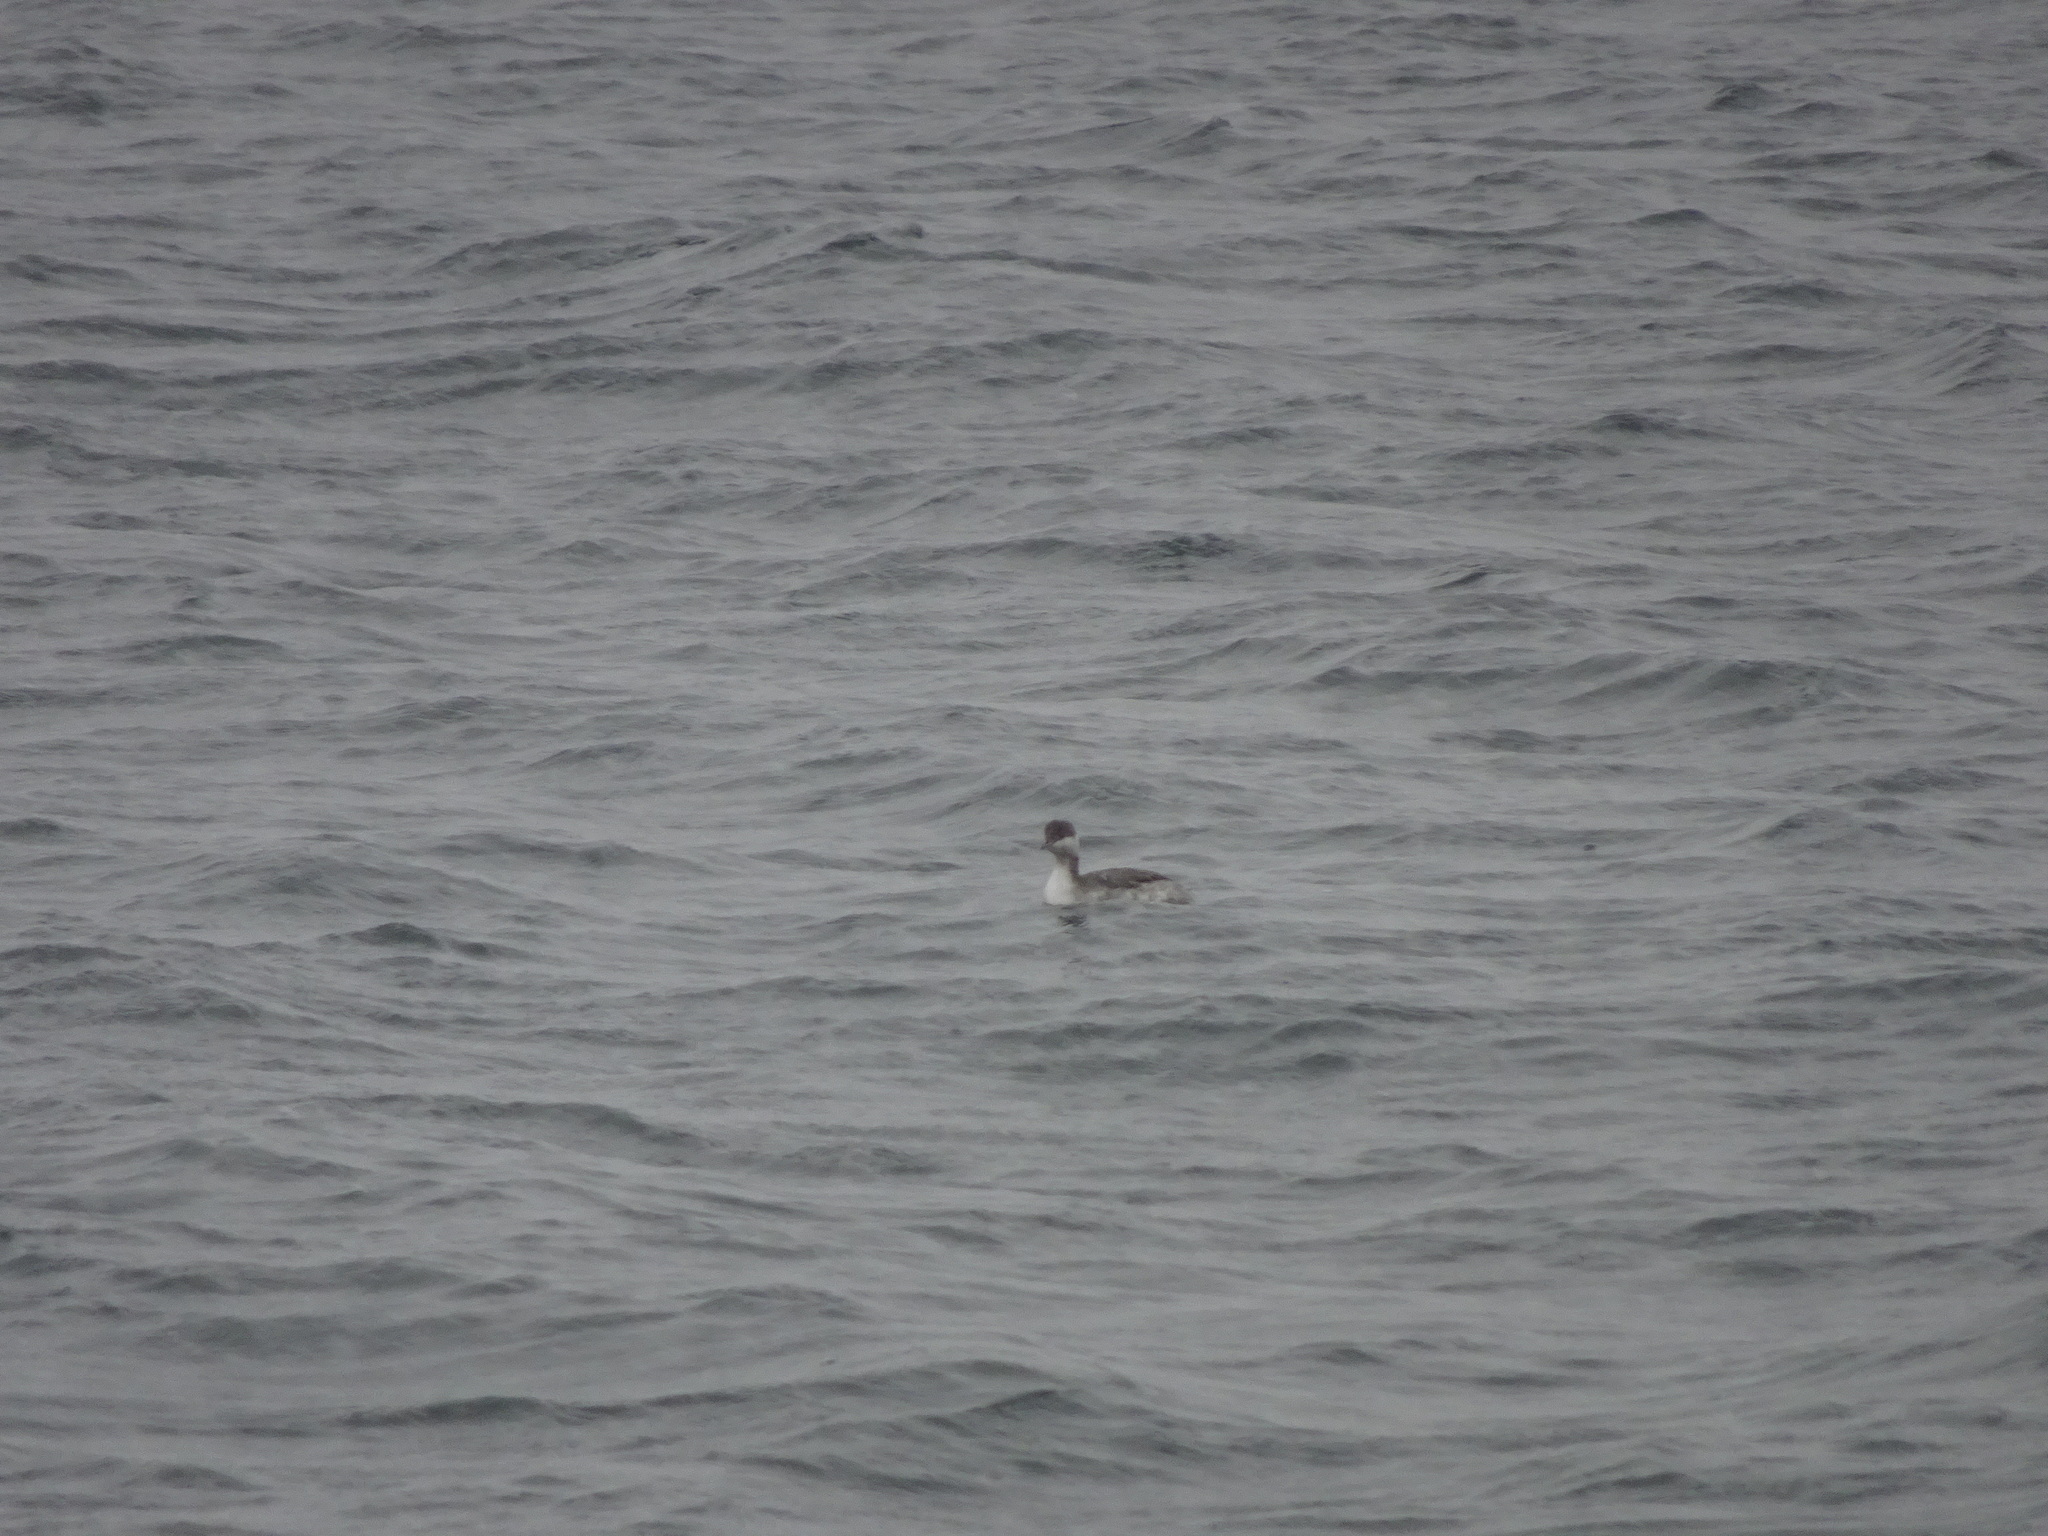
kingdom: Animalia
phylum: Chordata
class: Aves
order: Podicipediformes
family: Podicipedidae
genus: Podiceps
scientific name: Podiceps auritus
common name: Horned grebe
